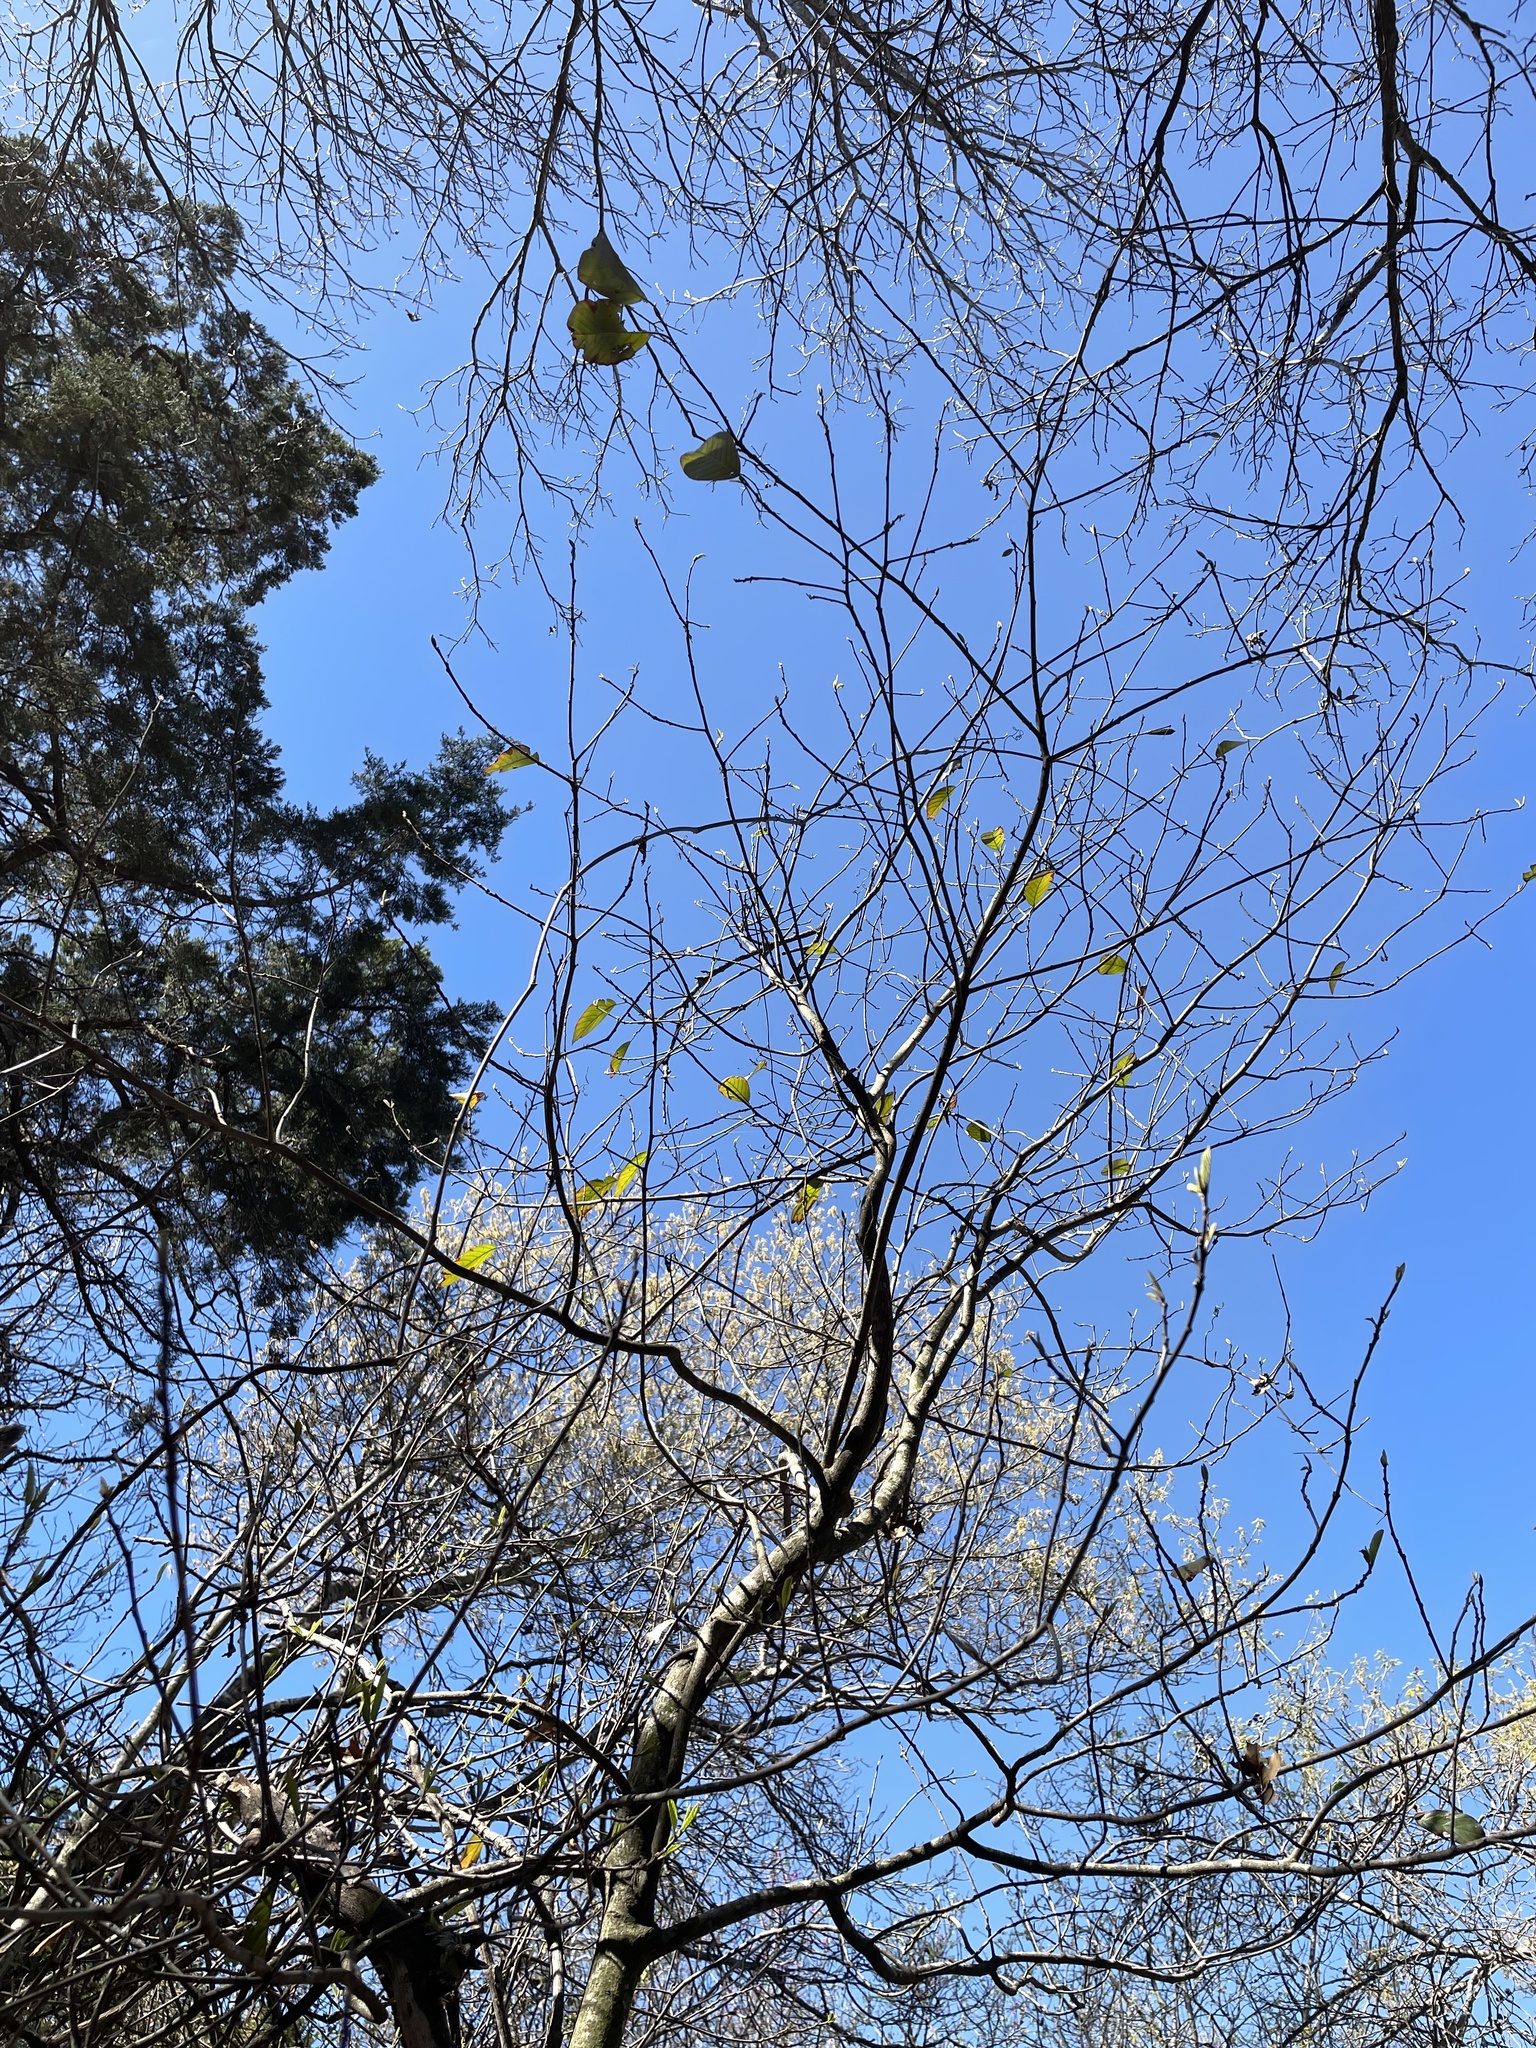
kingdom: Plantae
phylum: Tracheophyta
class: Magnoliopsida
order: Rosales
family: Rhamnaceae
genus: Frangula
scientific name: Frangula caroliniana
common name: Carolina buckthorn
